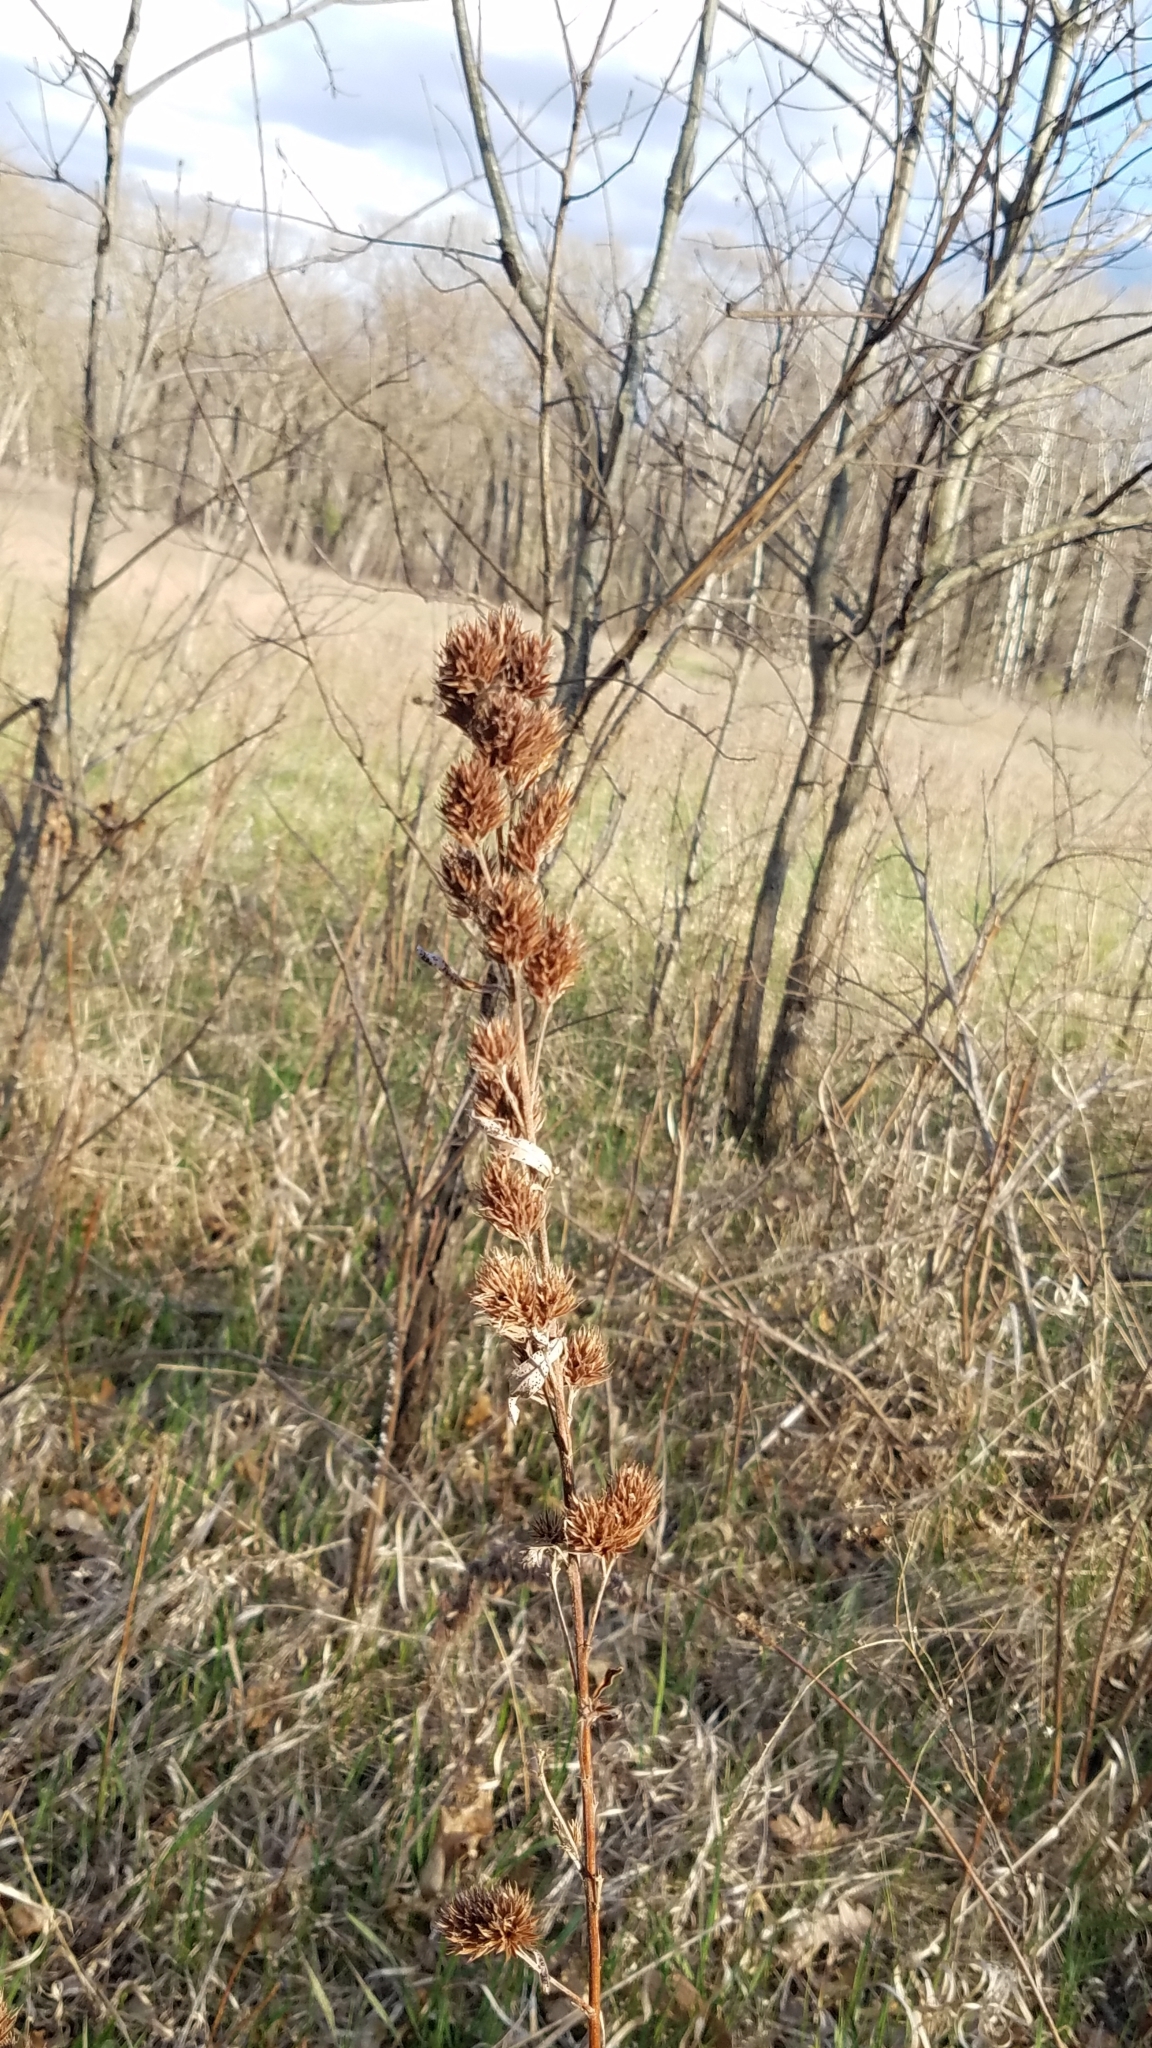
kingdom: Plantae
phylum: Tracheophyta
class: Magnoliopsida
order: Fabales
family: Fabaceae
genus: Lespedeza
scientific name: Lespedeza capitata
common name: Dusty clover
